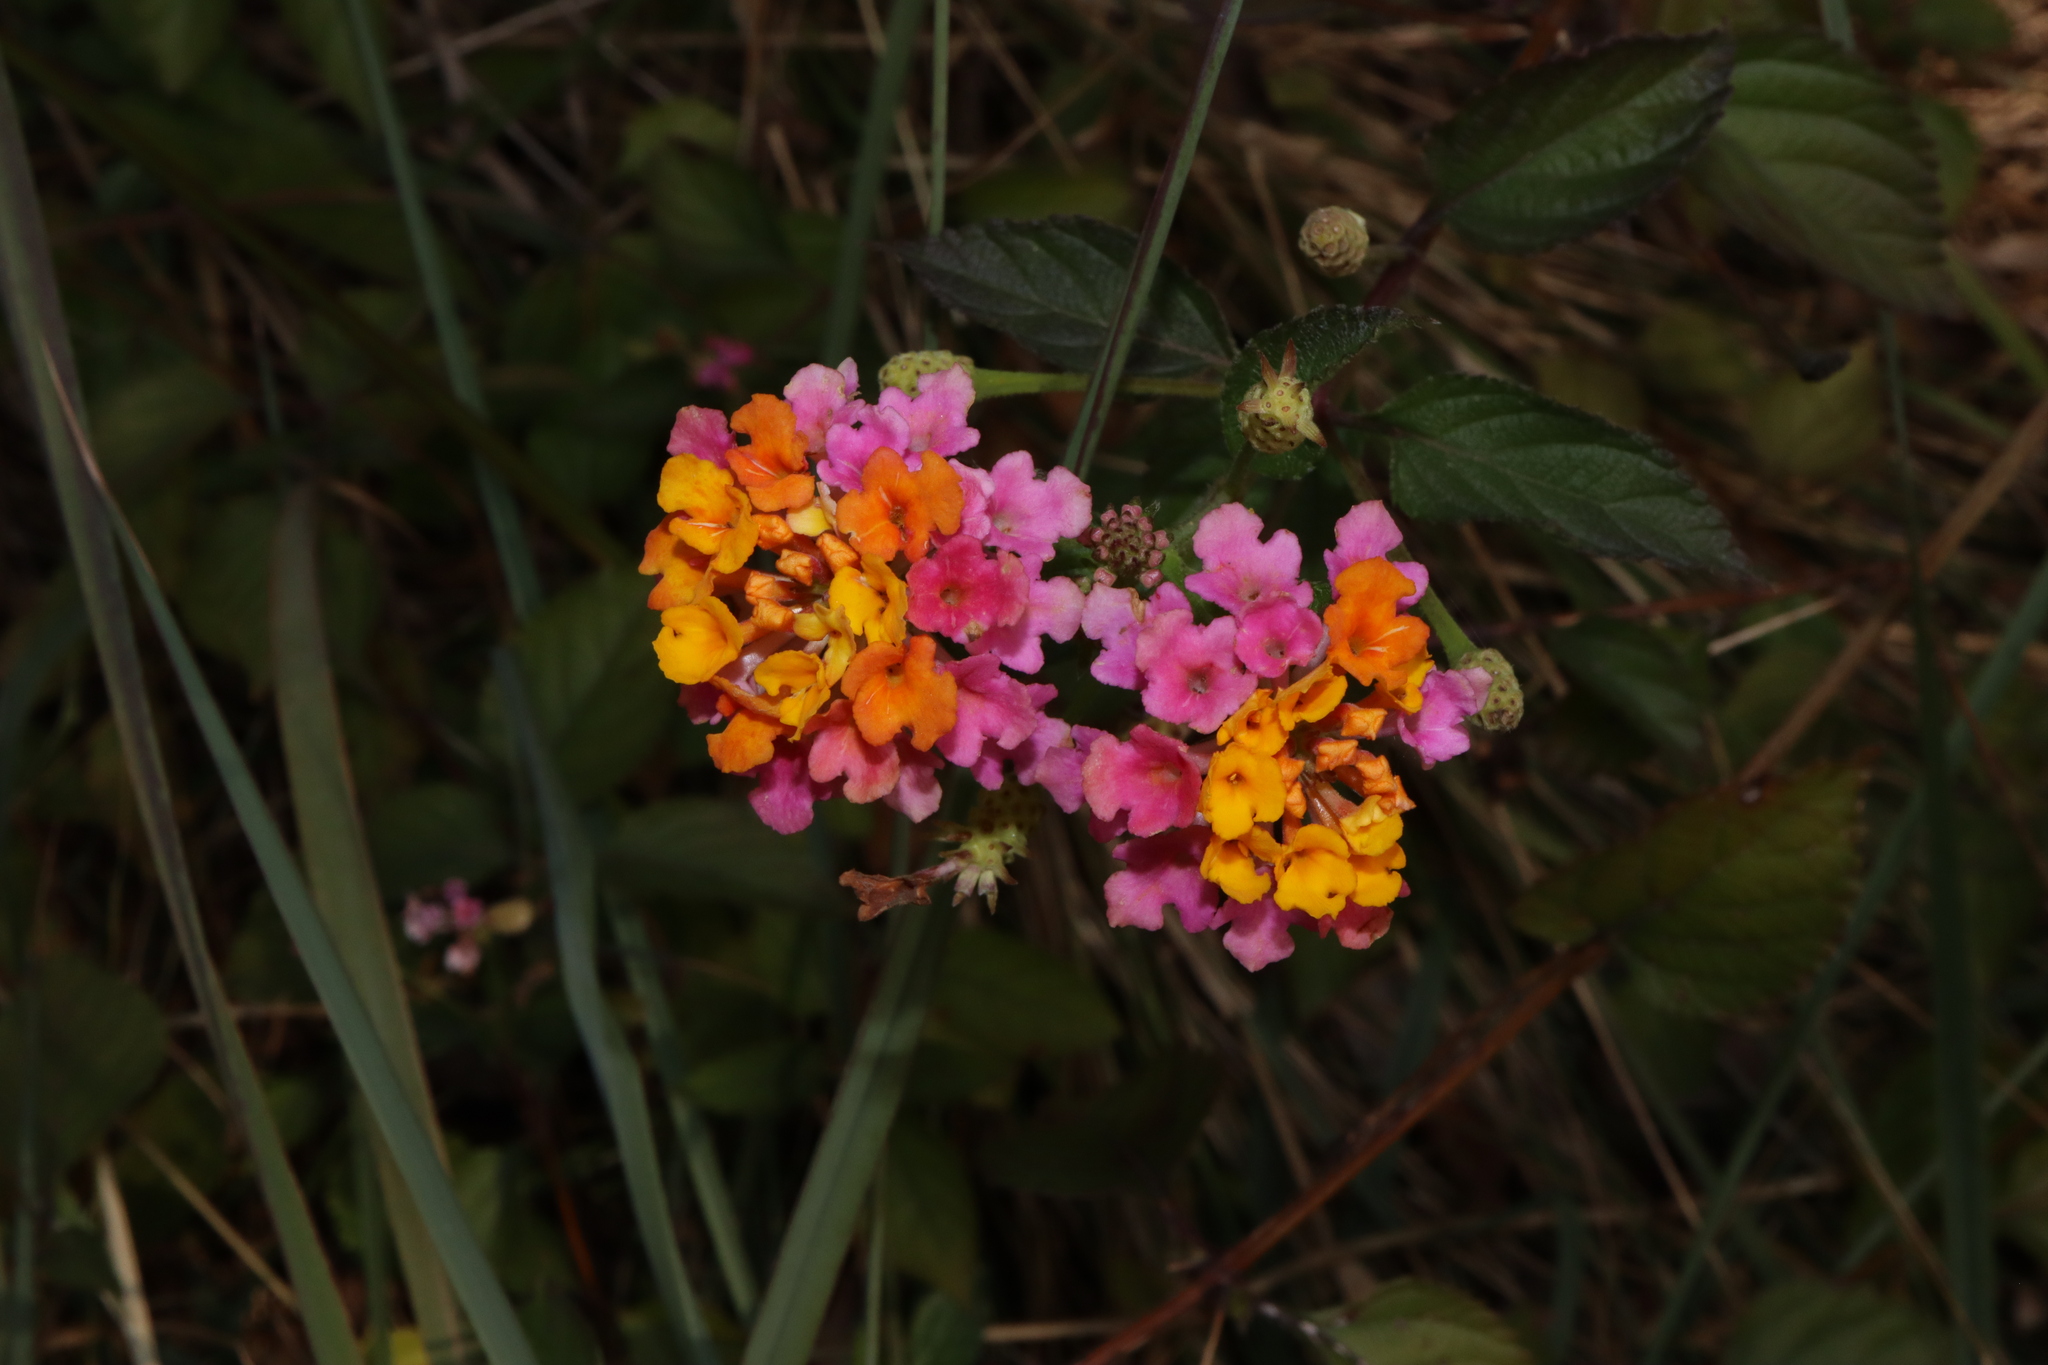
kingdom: Plantae
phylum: Tracheophyta
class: Magnoliopsida
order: Lamiales
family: Verbenaceae
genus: Lantana
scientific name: Lantana camara
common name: Lantana
